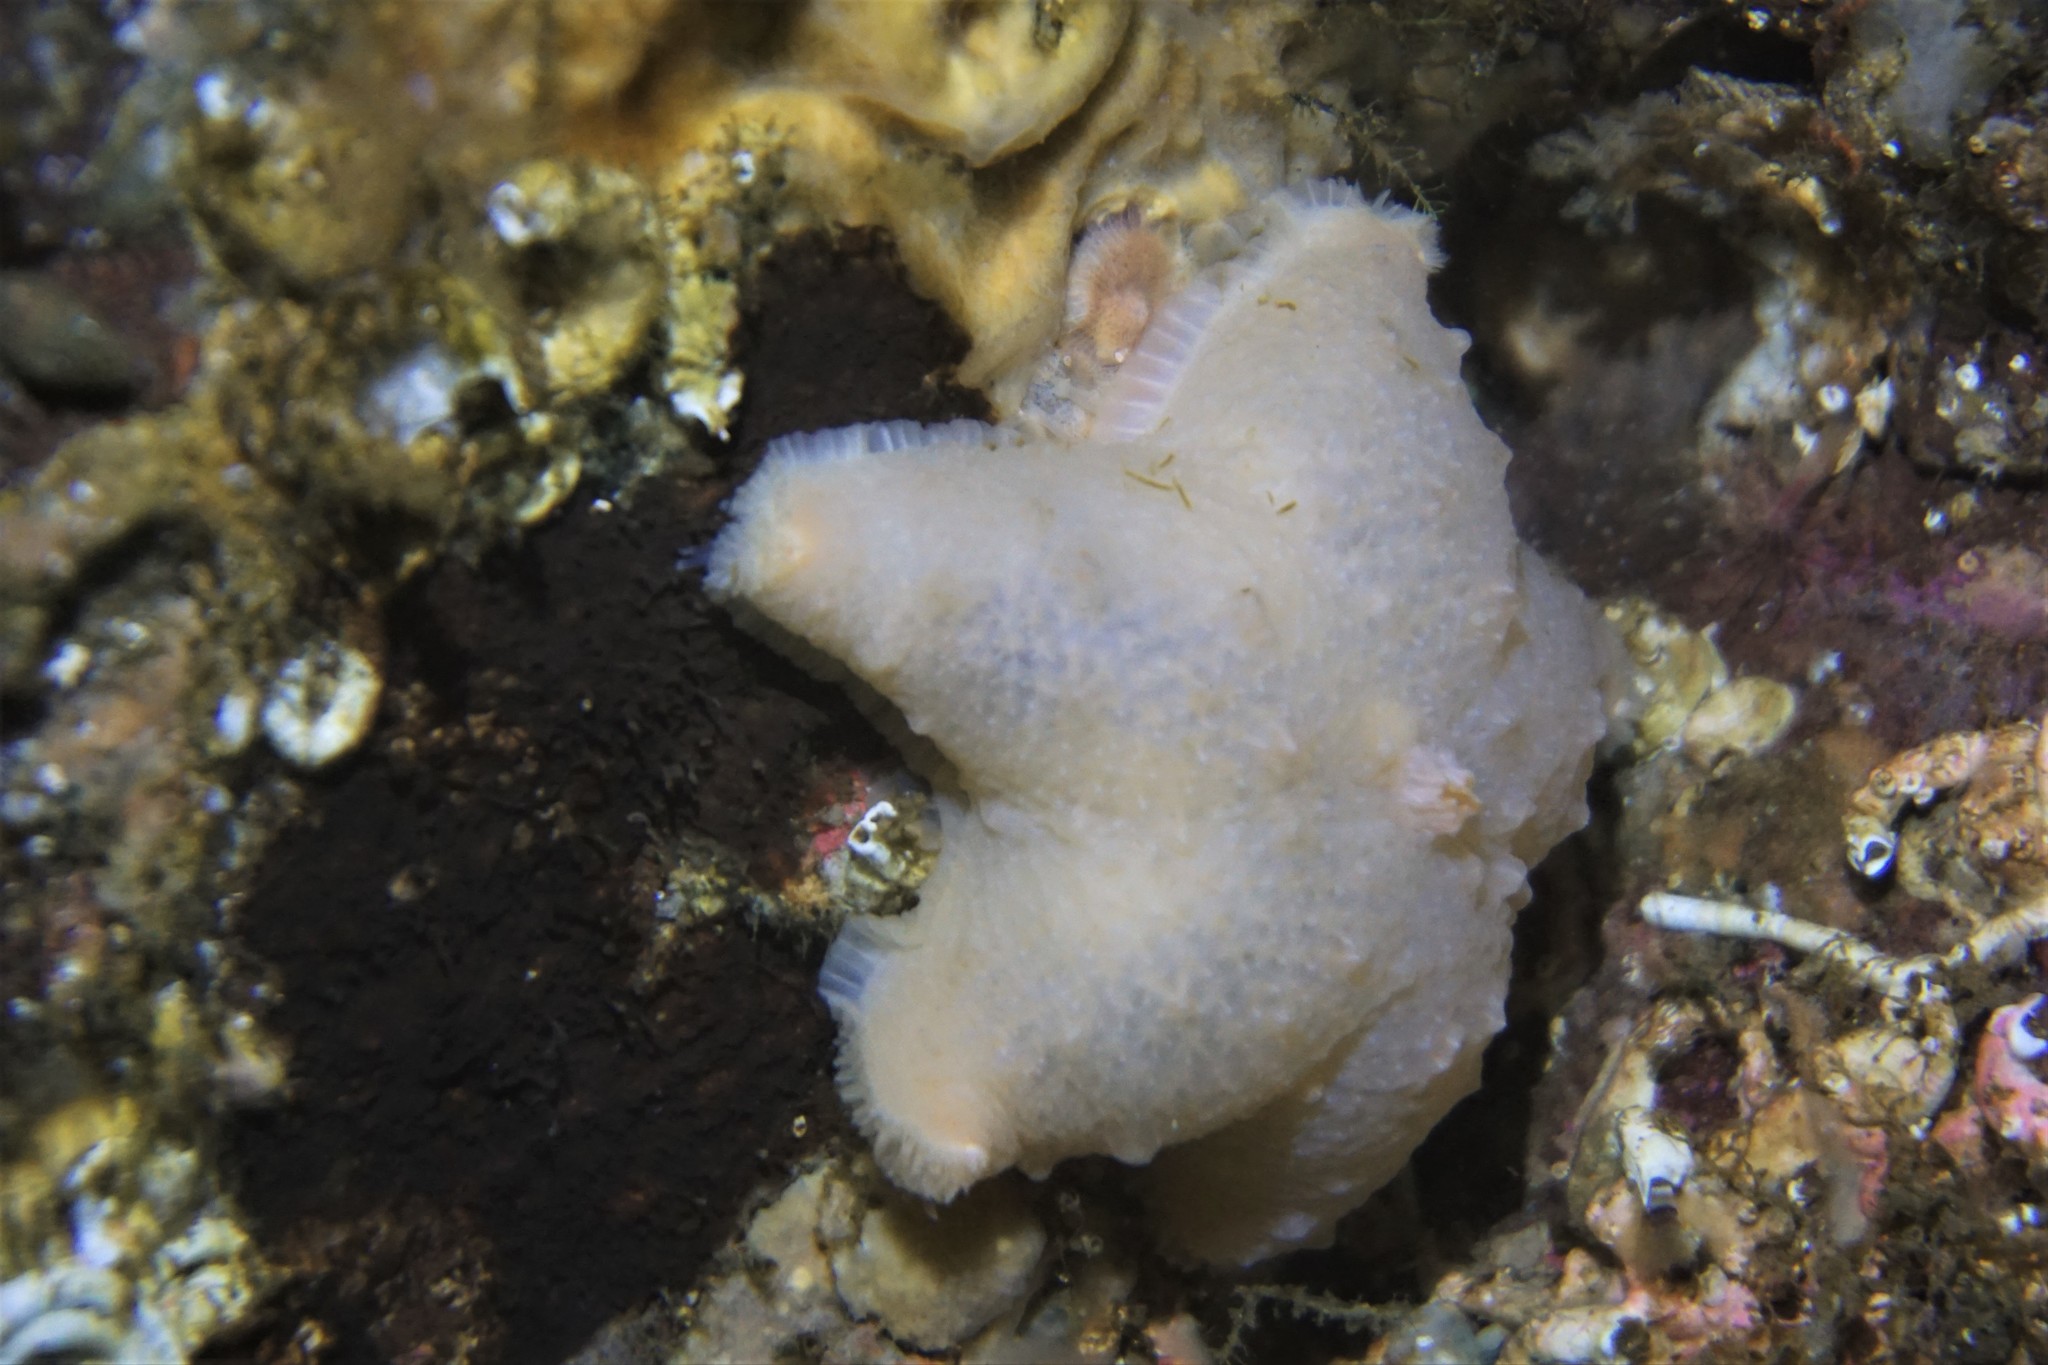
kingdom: Animalia
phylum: Echinodermata
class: Asteroidea
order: Velatida
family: Pterasteridae
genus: Pteraster
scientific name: Pteraster militaris
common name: Wrinkled slime star
